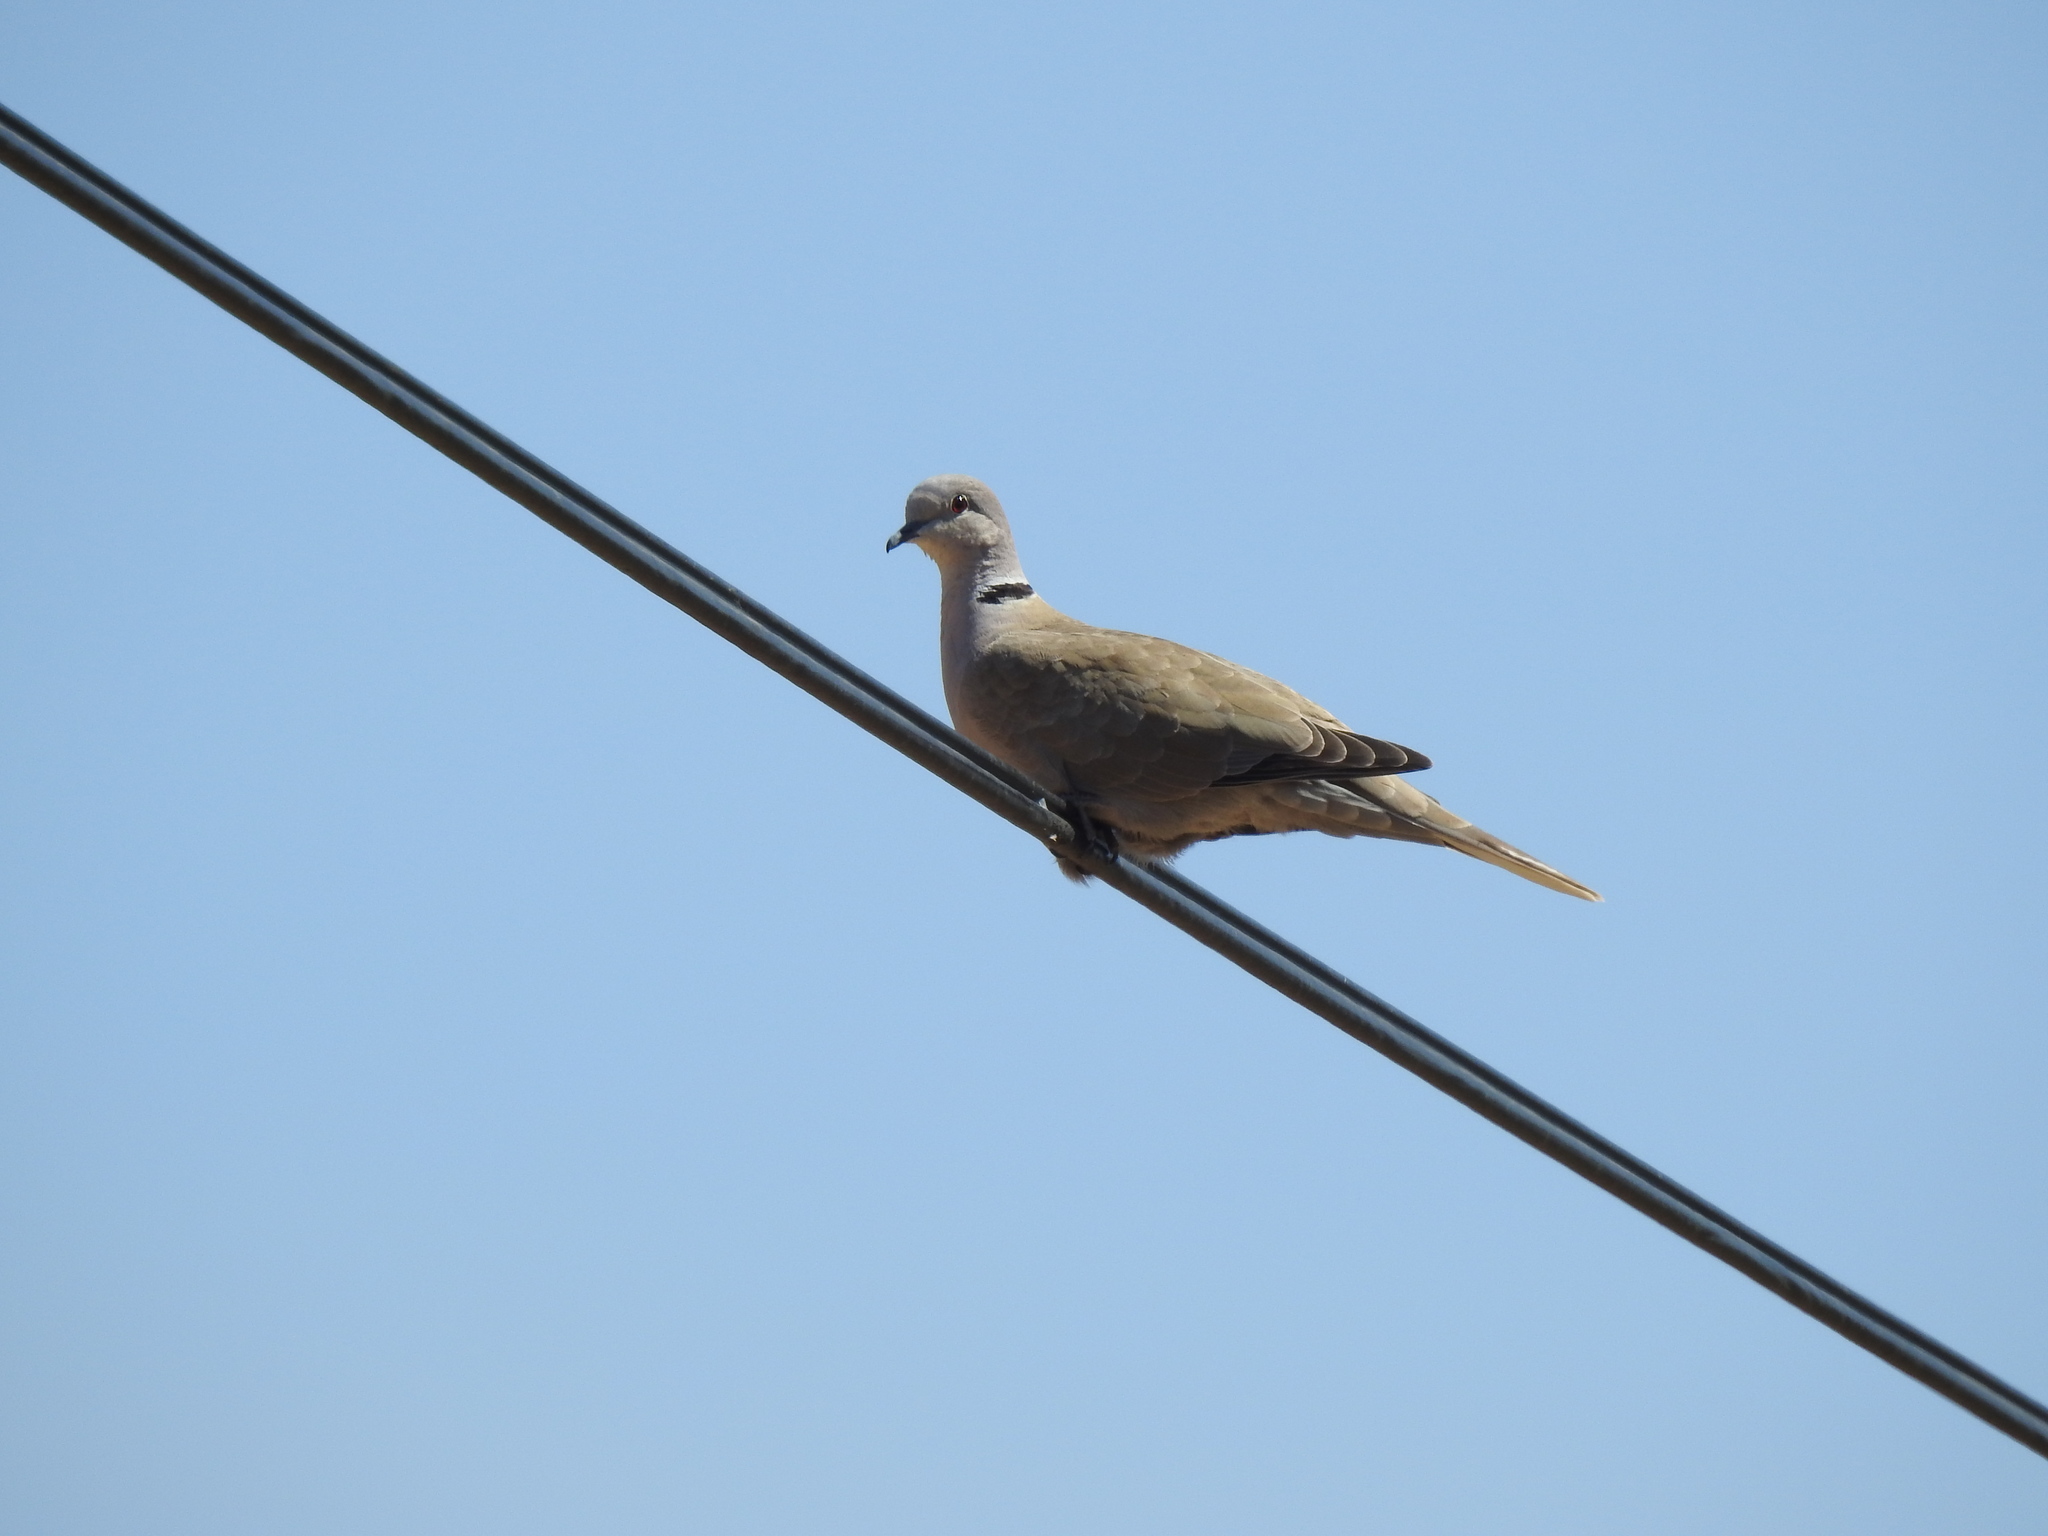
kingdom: Animalia
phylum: Chordata
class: Aves
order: Columbiformes
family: Columbidae
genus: Streptopelia
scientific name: Streptopelia decaocto
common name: Eurasian collared dove
